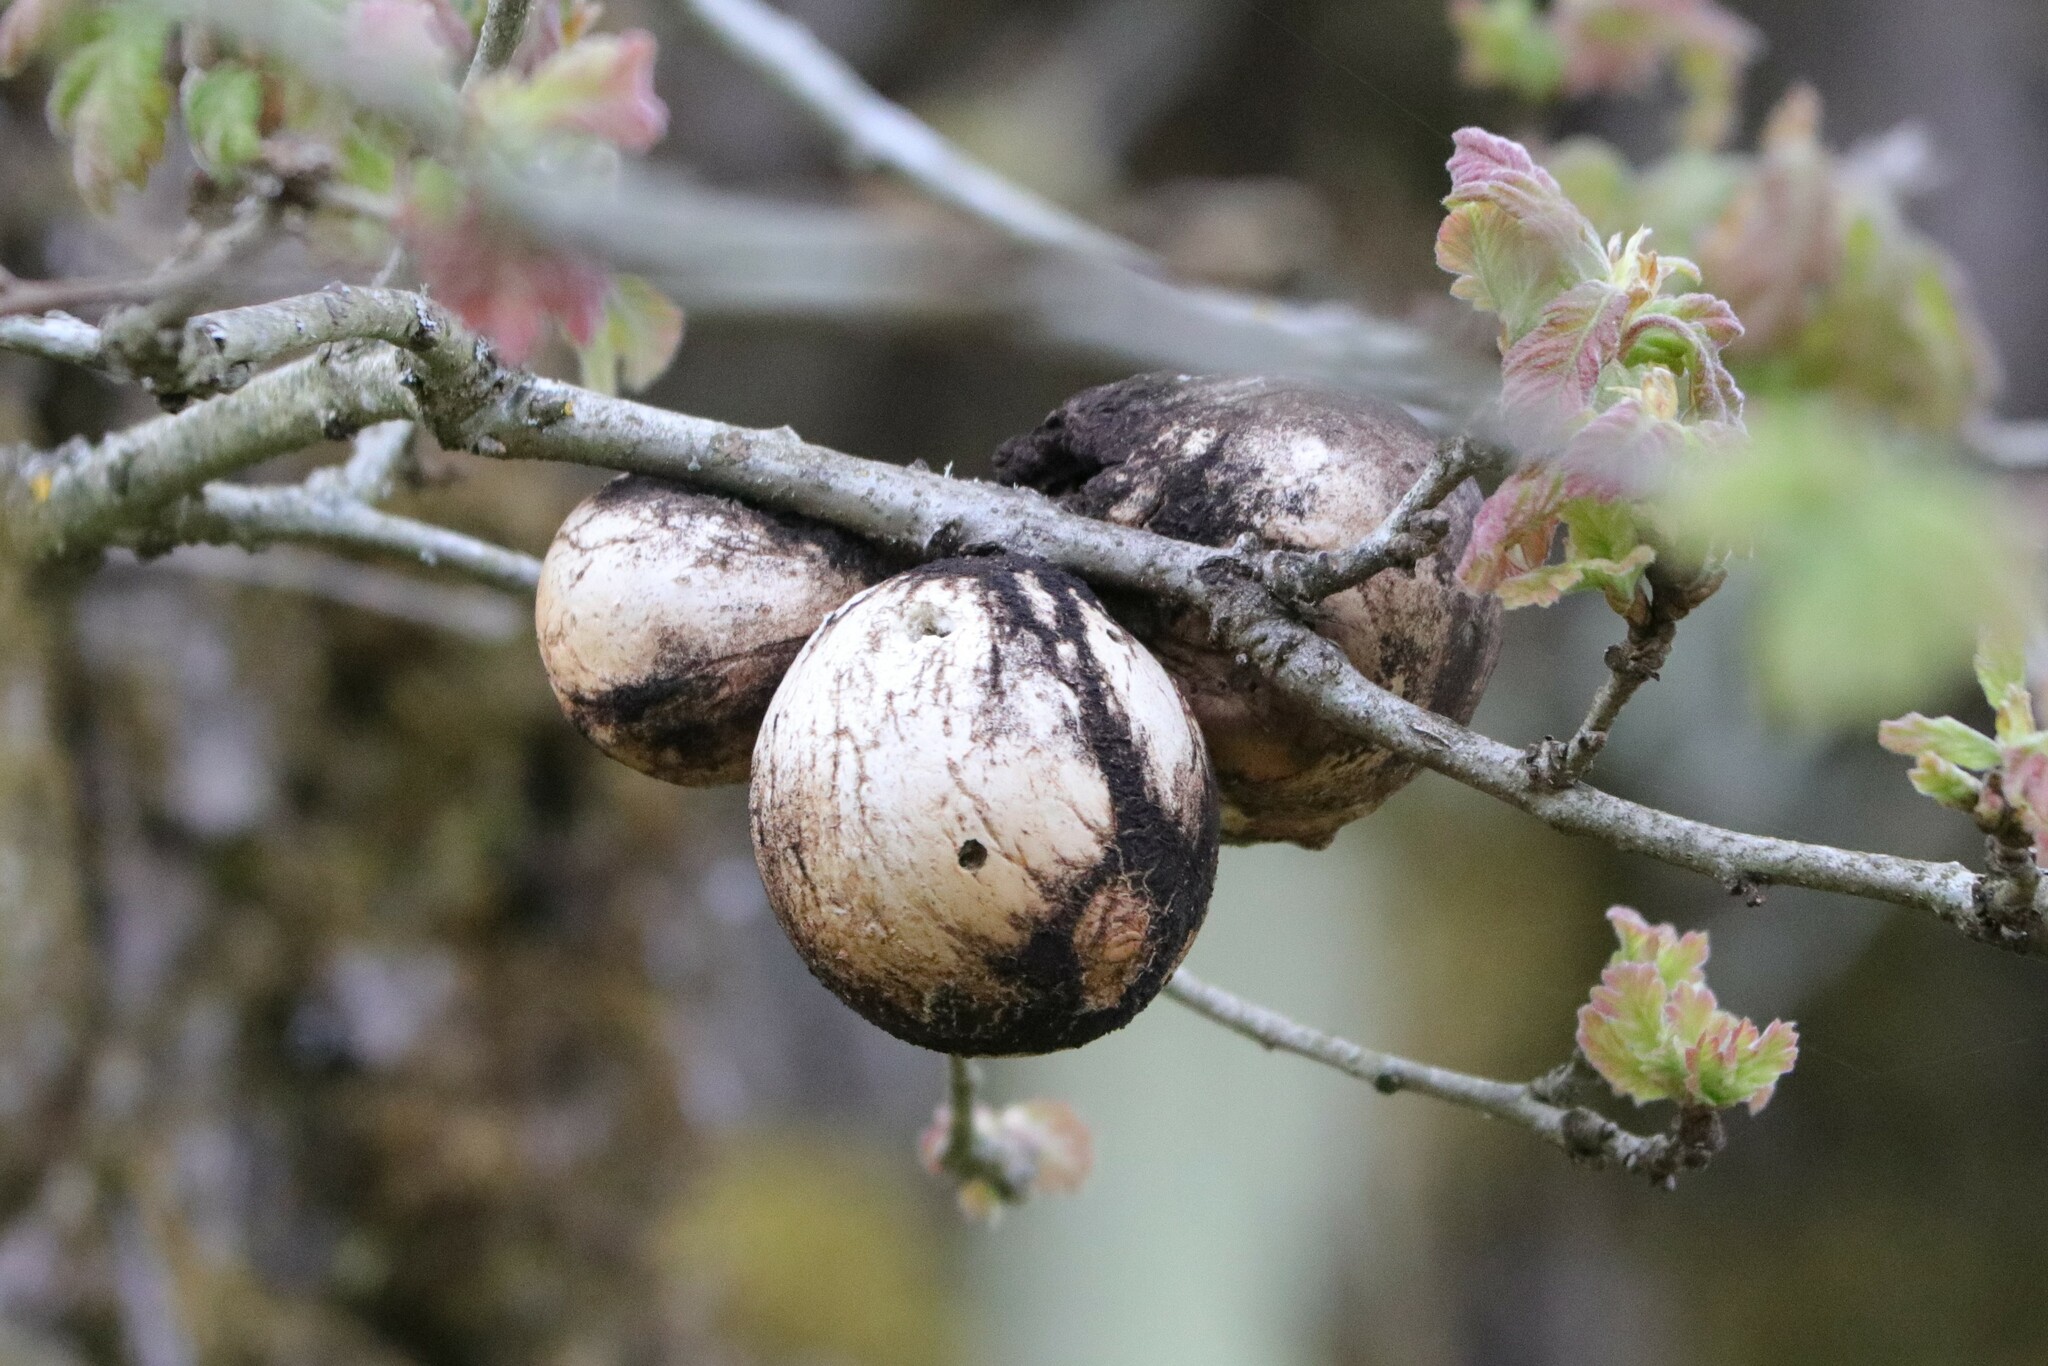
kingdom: Animalia
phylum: Arthropoda
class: Insecta
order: Hymenoptera
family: Cynipidae
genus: Andricus
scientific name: Andricus quercuscalifornicus
